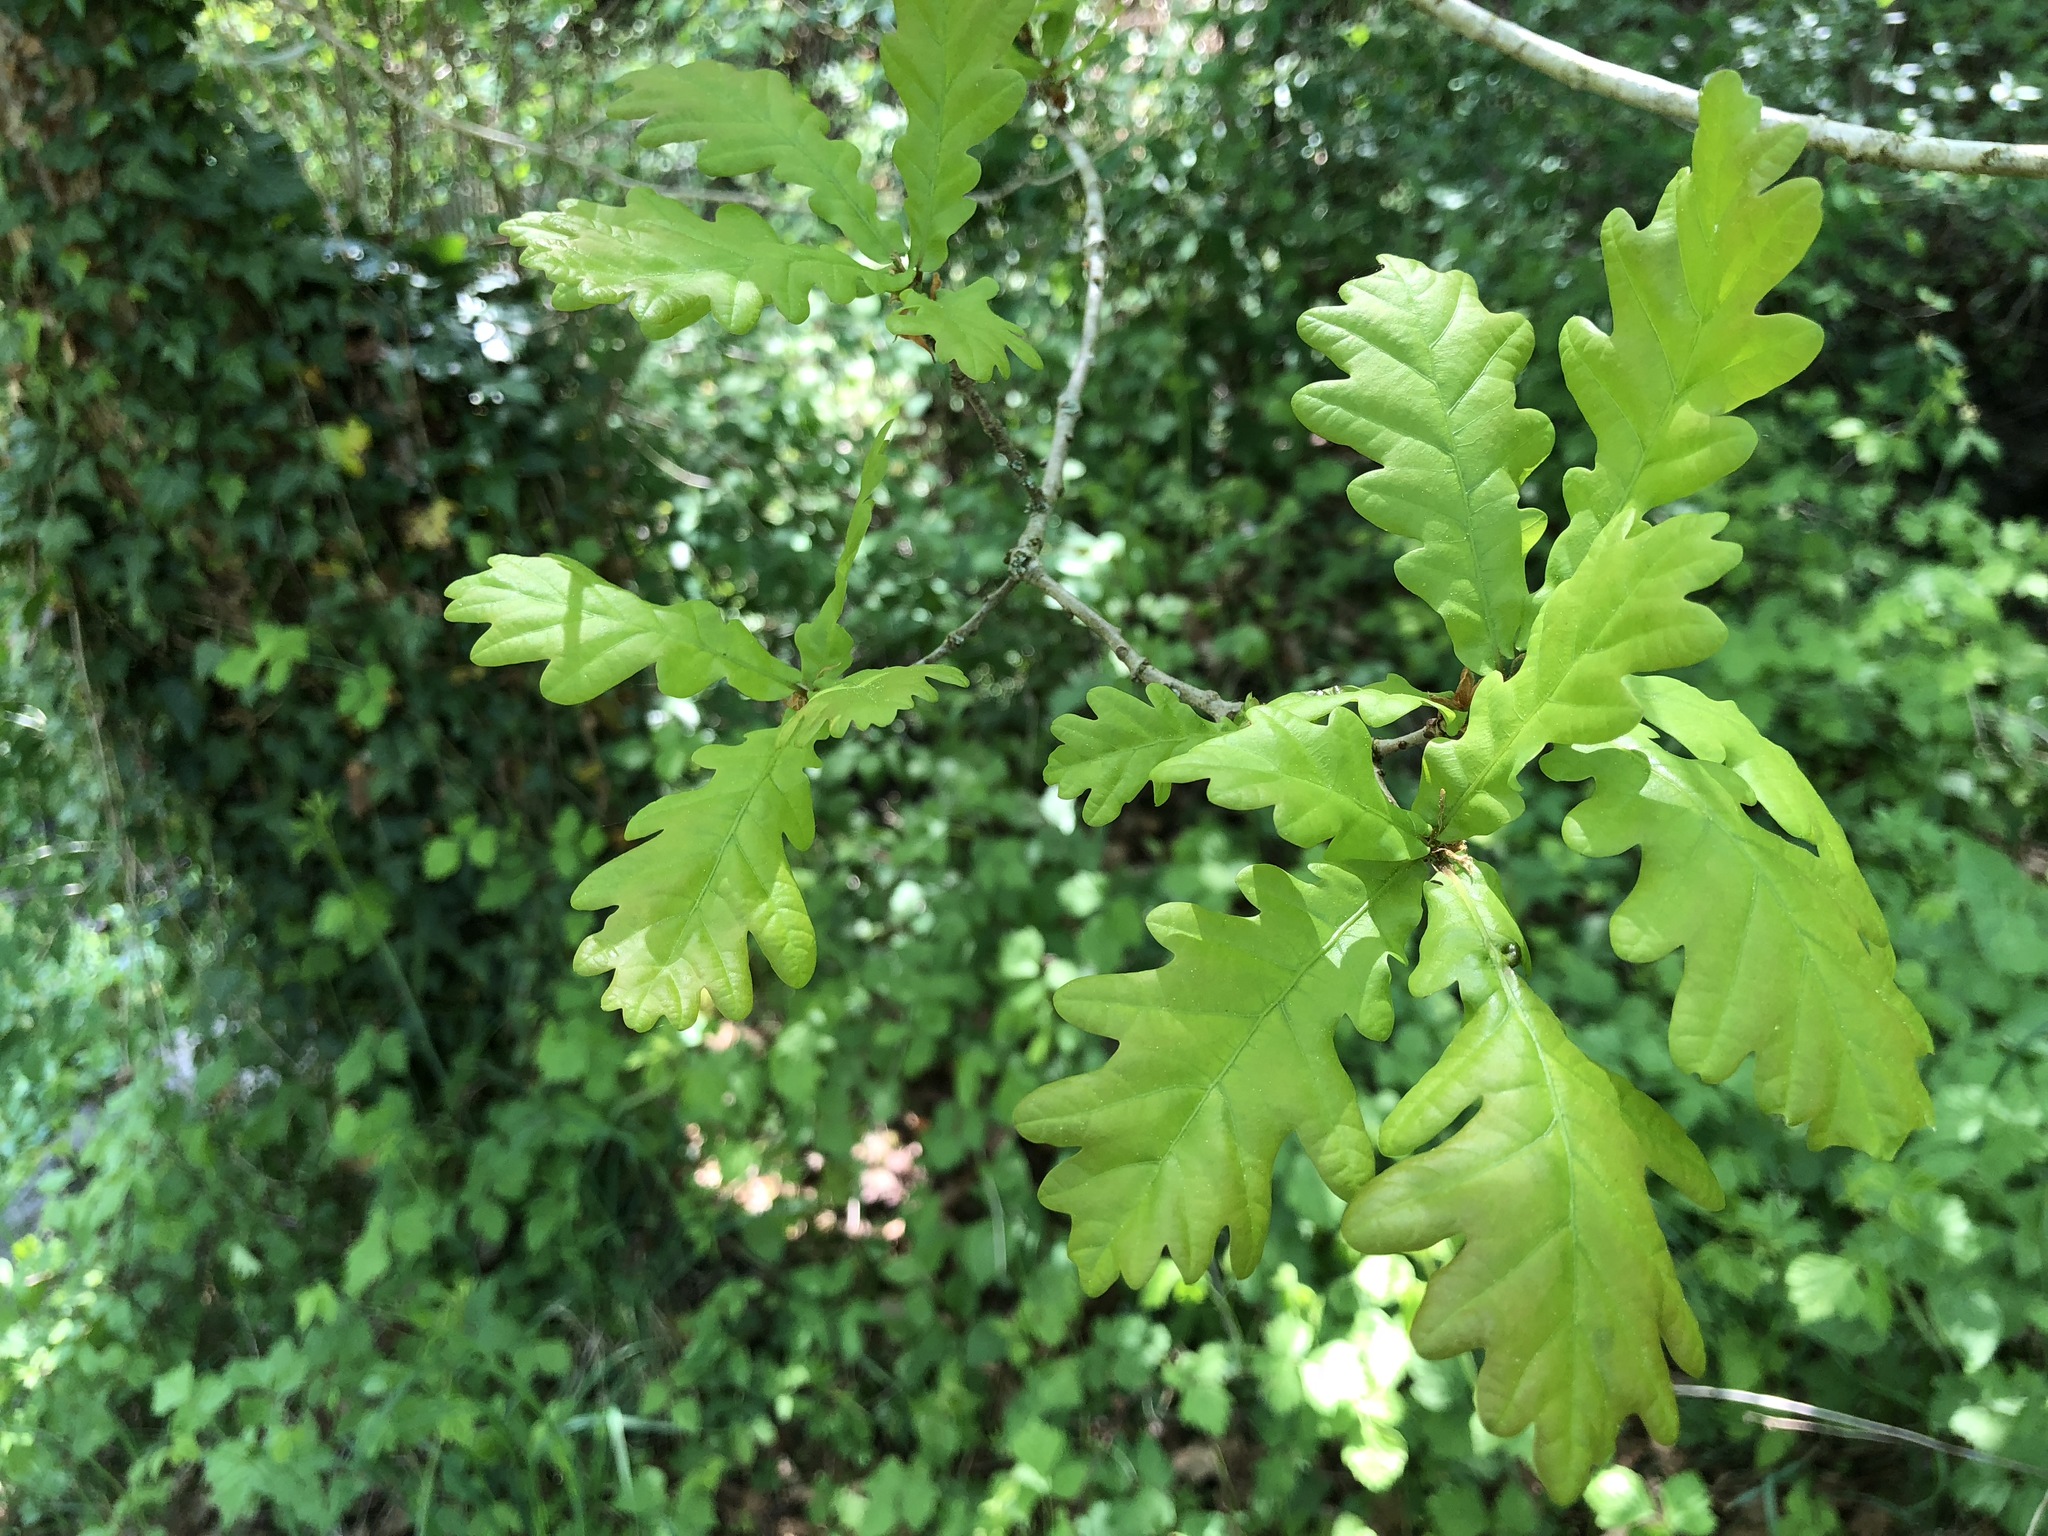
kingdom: Plantae
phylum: Tracheophyta
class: Magnoliopsida
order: Fagales
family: Fagaceae
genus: Quercus
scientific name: Quercus robur
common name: Pedunculate oak
